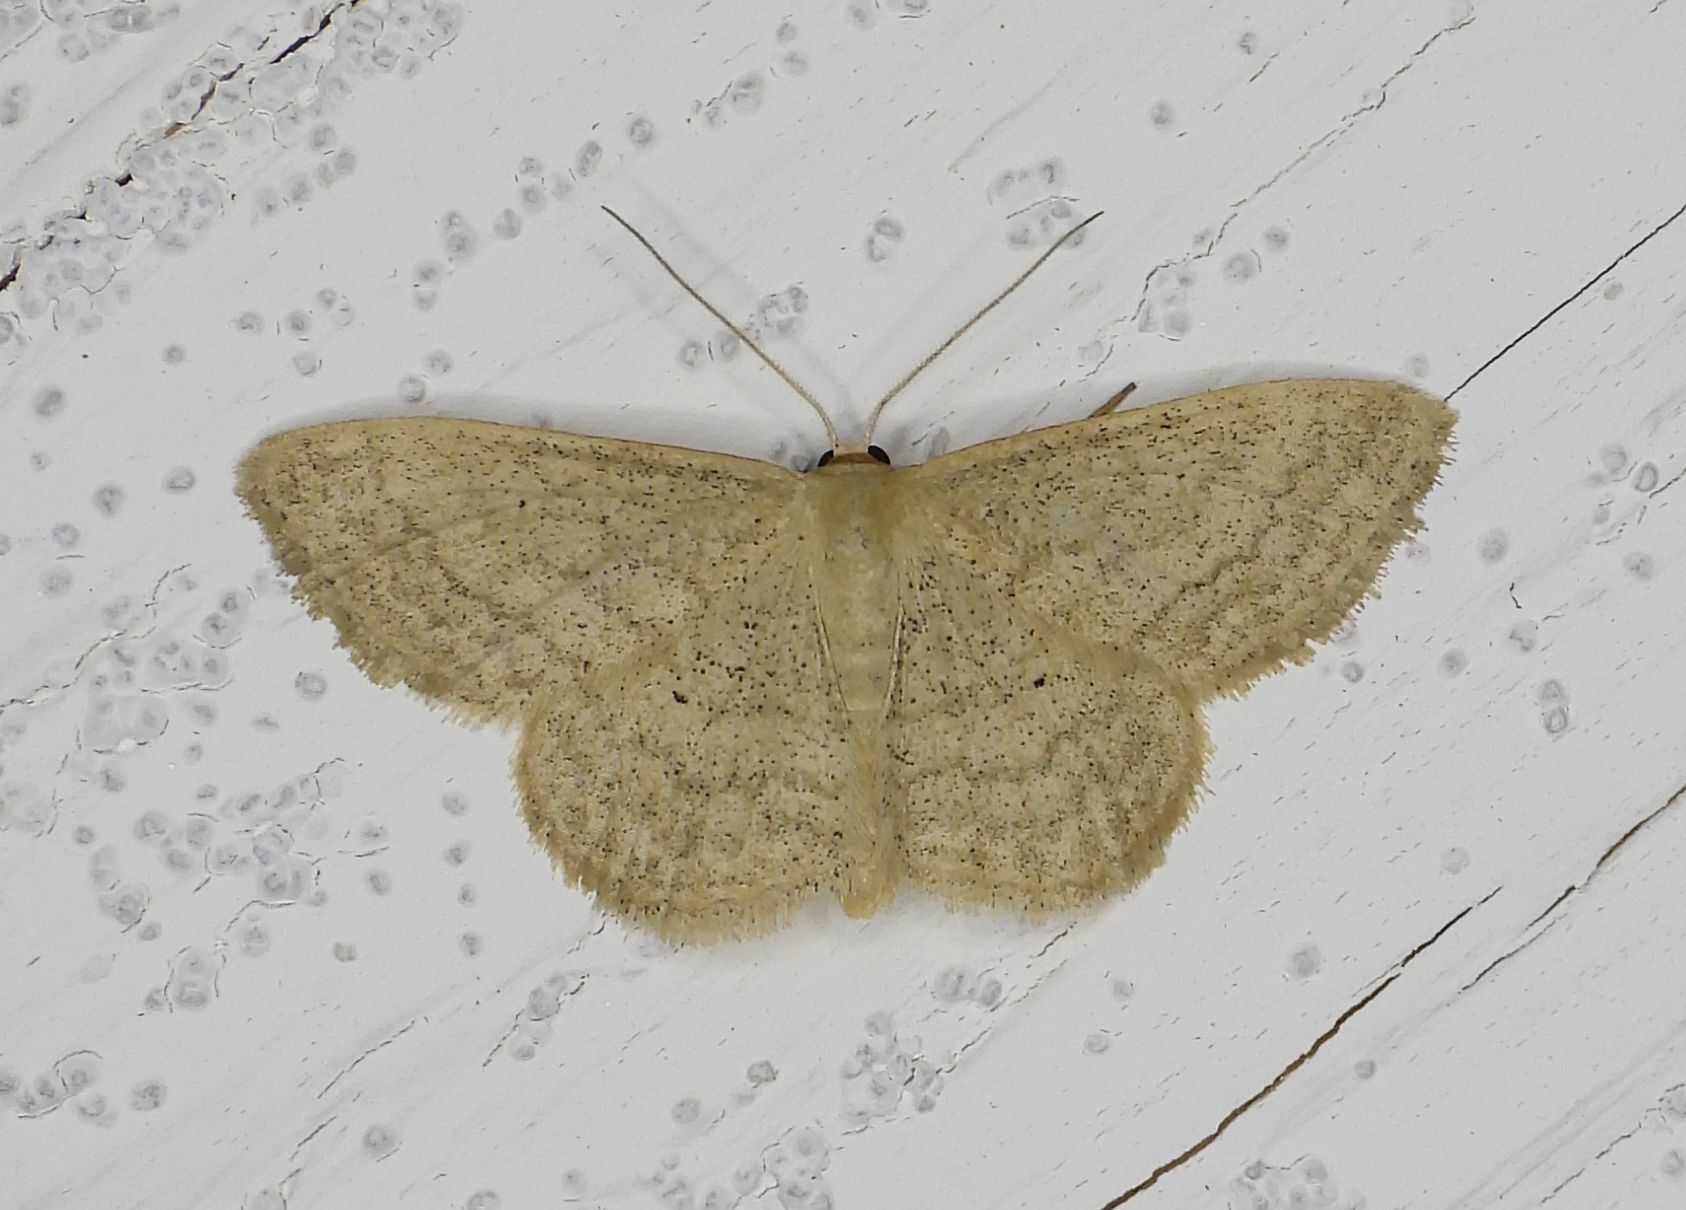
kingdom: Animalia
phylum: Arthropoda
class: Insecta
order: Lepidoptera
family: Geometridae
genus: Scopula
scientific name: Scopula inductata
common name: Soft-lined wave
